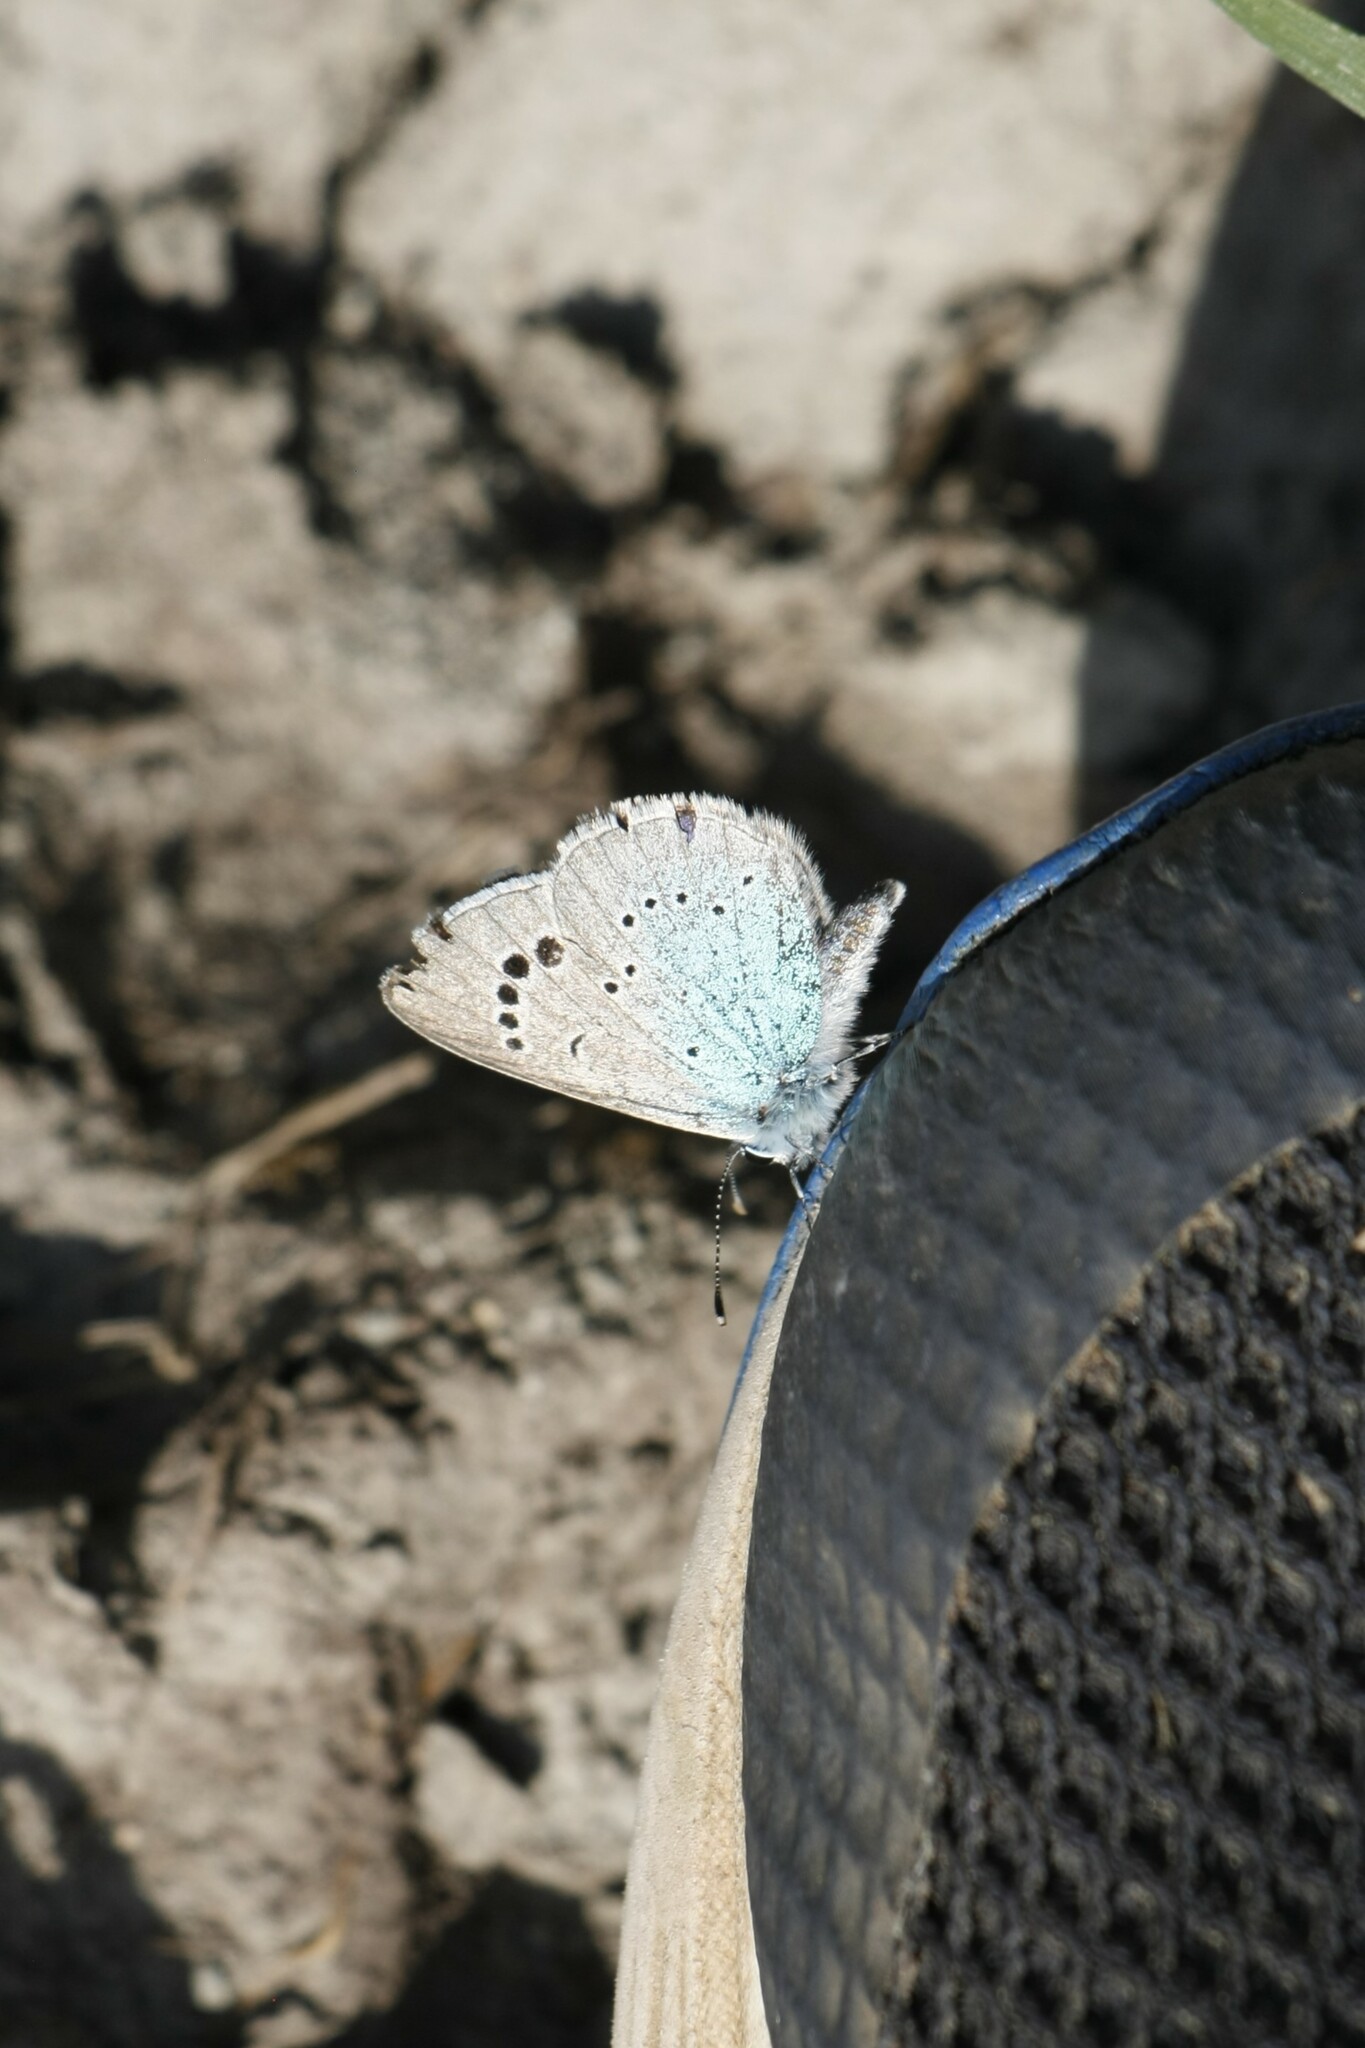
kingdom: Animalia
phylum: Arthropoda
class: Insecta
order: Lepidoptera
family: Lycaenidae
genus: Glaucopsyche
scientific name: Glaucopsyche alexis
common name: Green-underside blue
